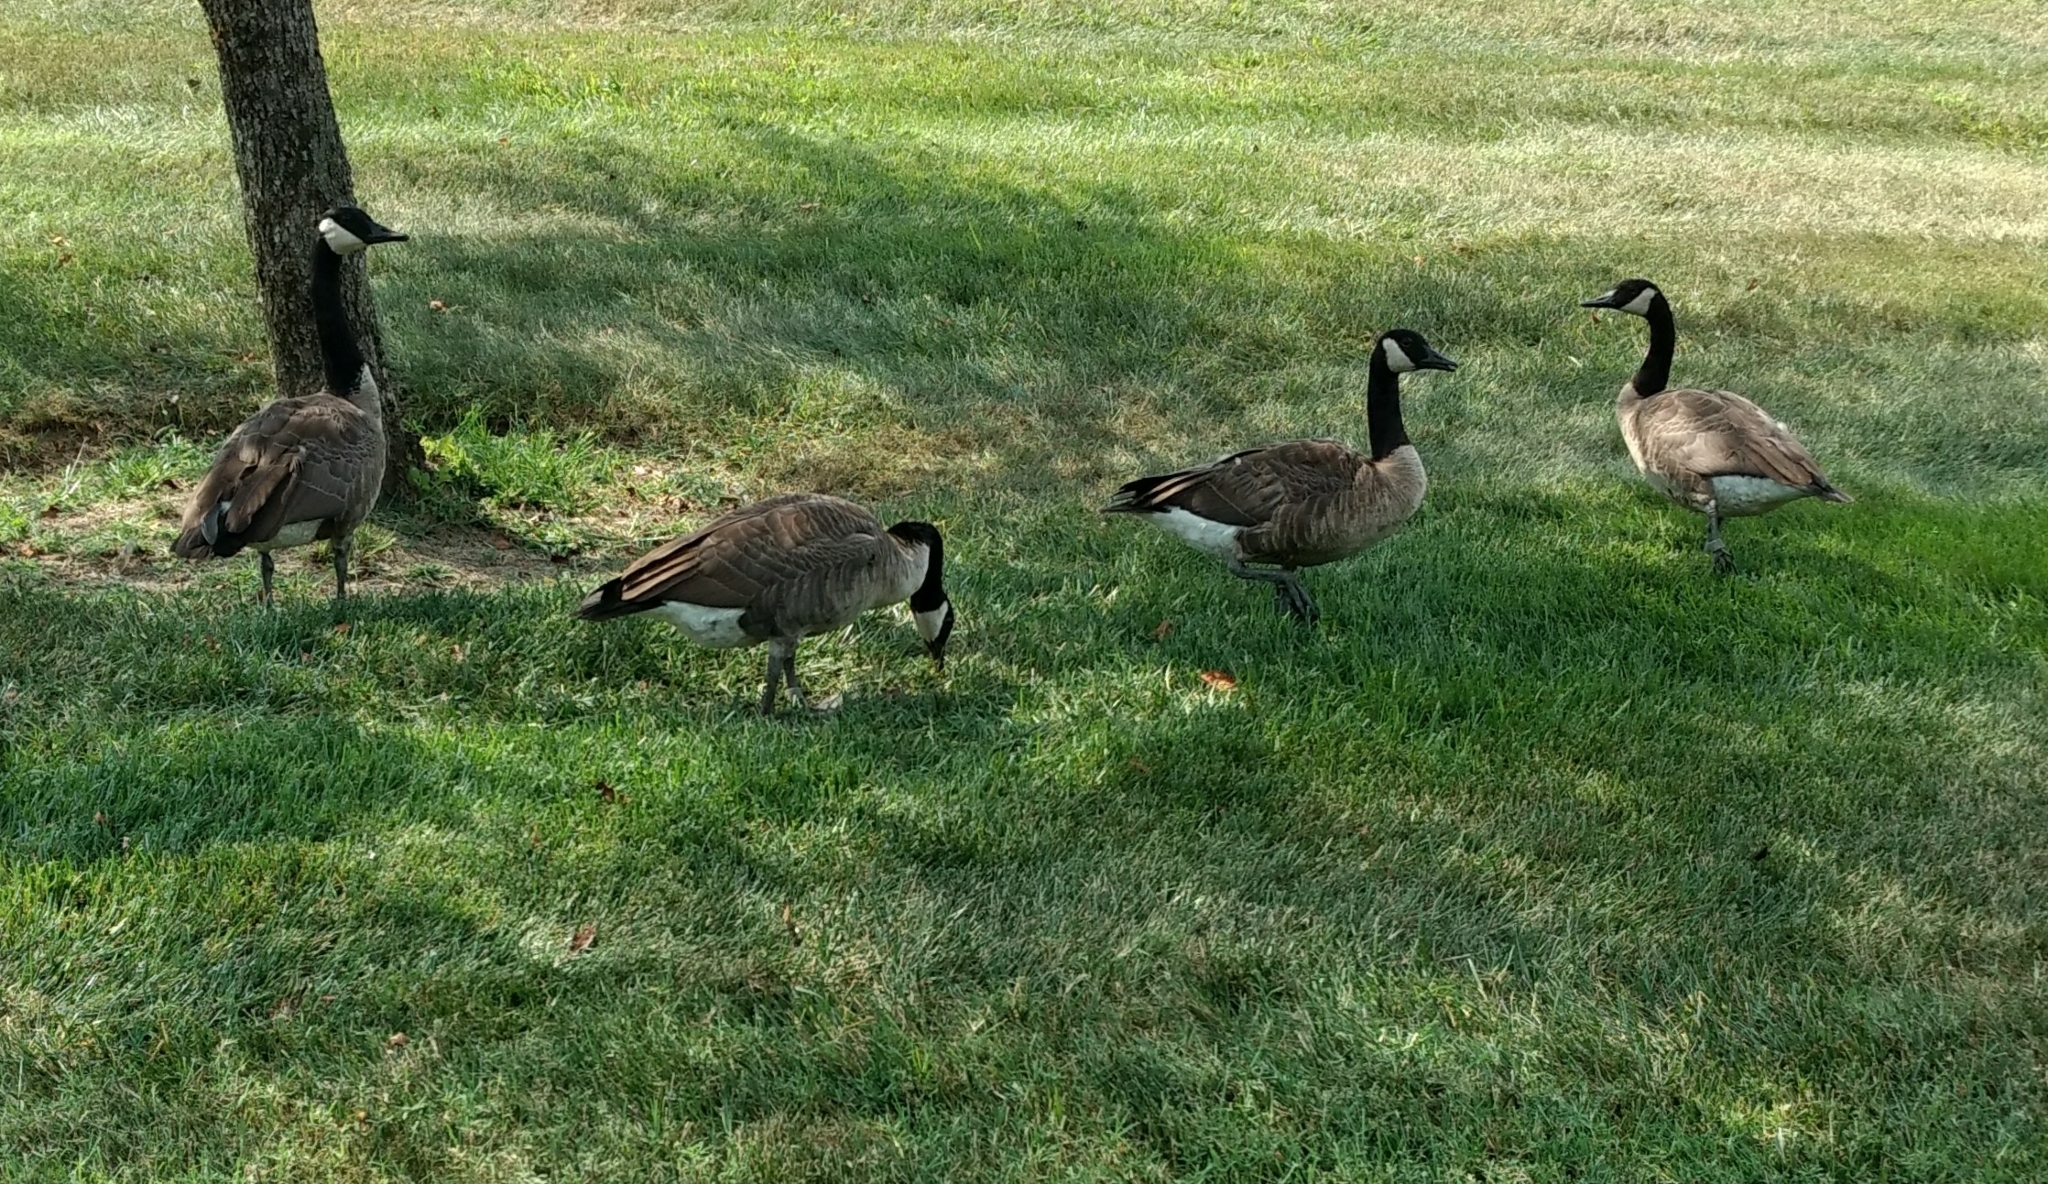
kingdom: Animalia
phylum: Chordata
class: Aves
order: Anseriformes
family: Anatidae
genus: Branta
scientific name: Branta canadensis
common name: Canada goose
